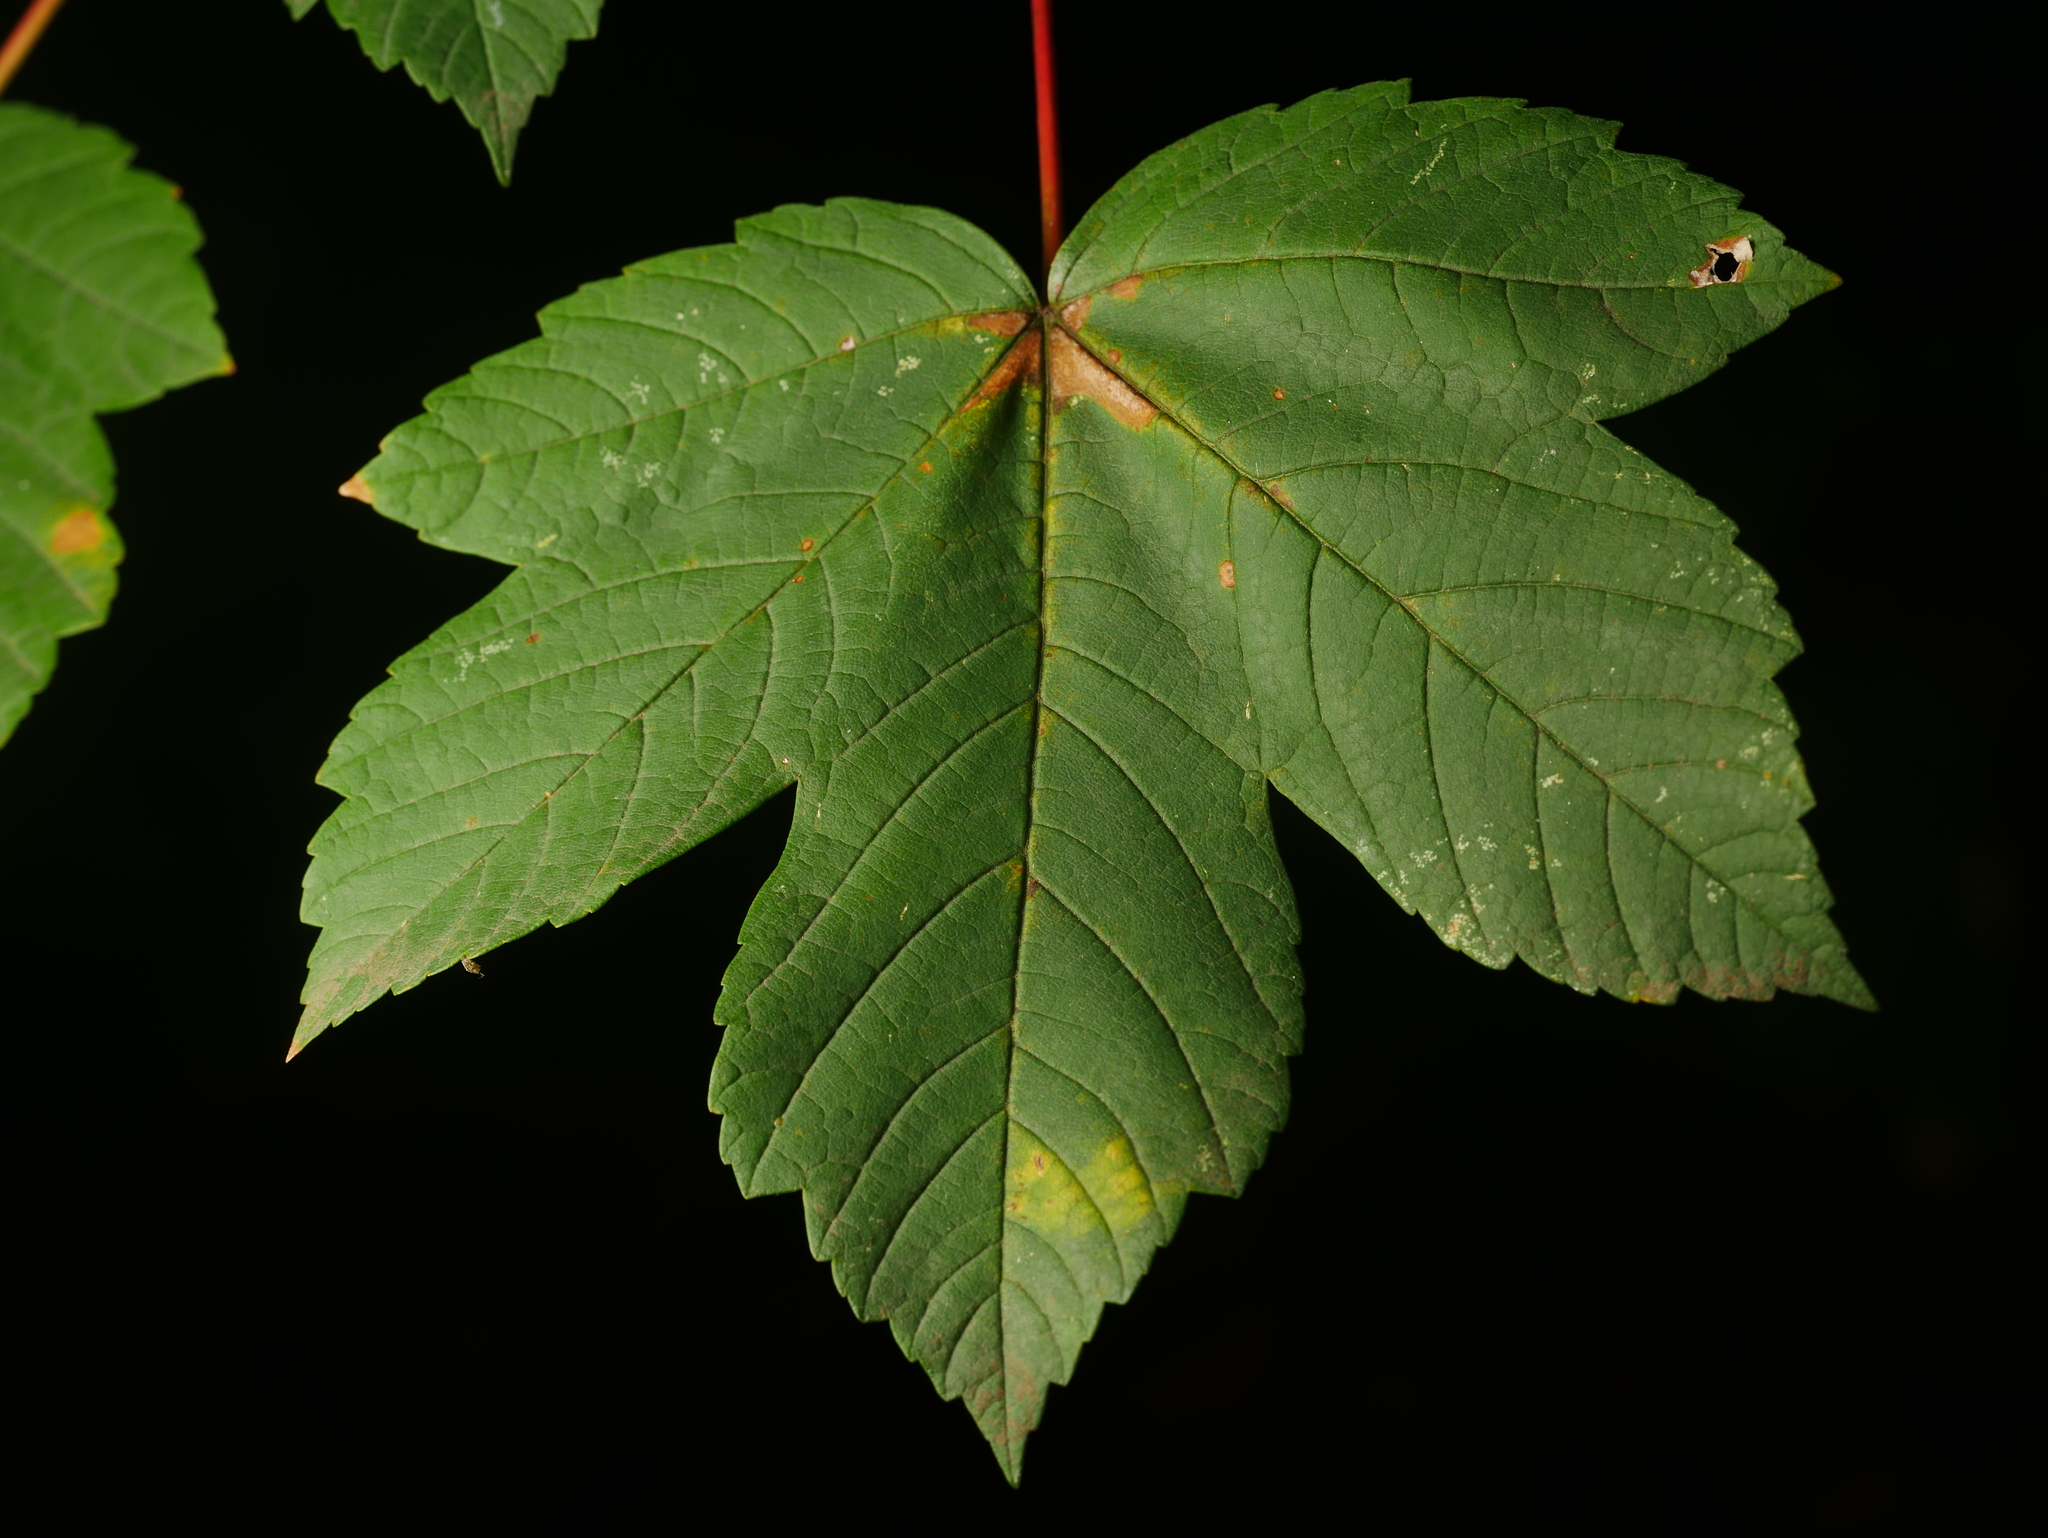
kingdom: Plantae
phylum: Tracheophyta
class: Magnoliopsida
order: Sapindales
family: Sapindaceae
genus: Acer
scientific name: Acer pseudoplatanus
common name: Sycamore
